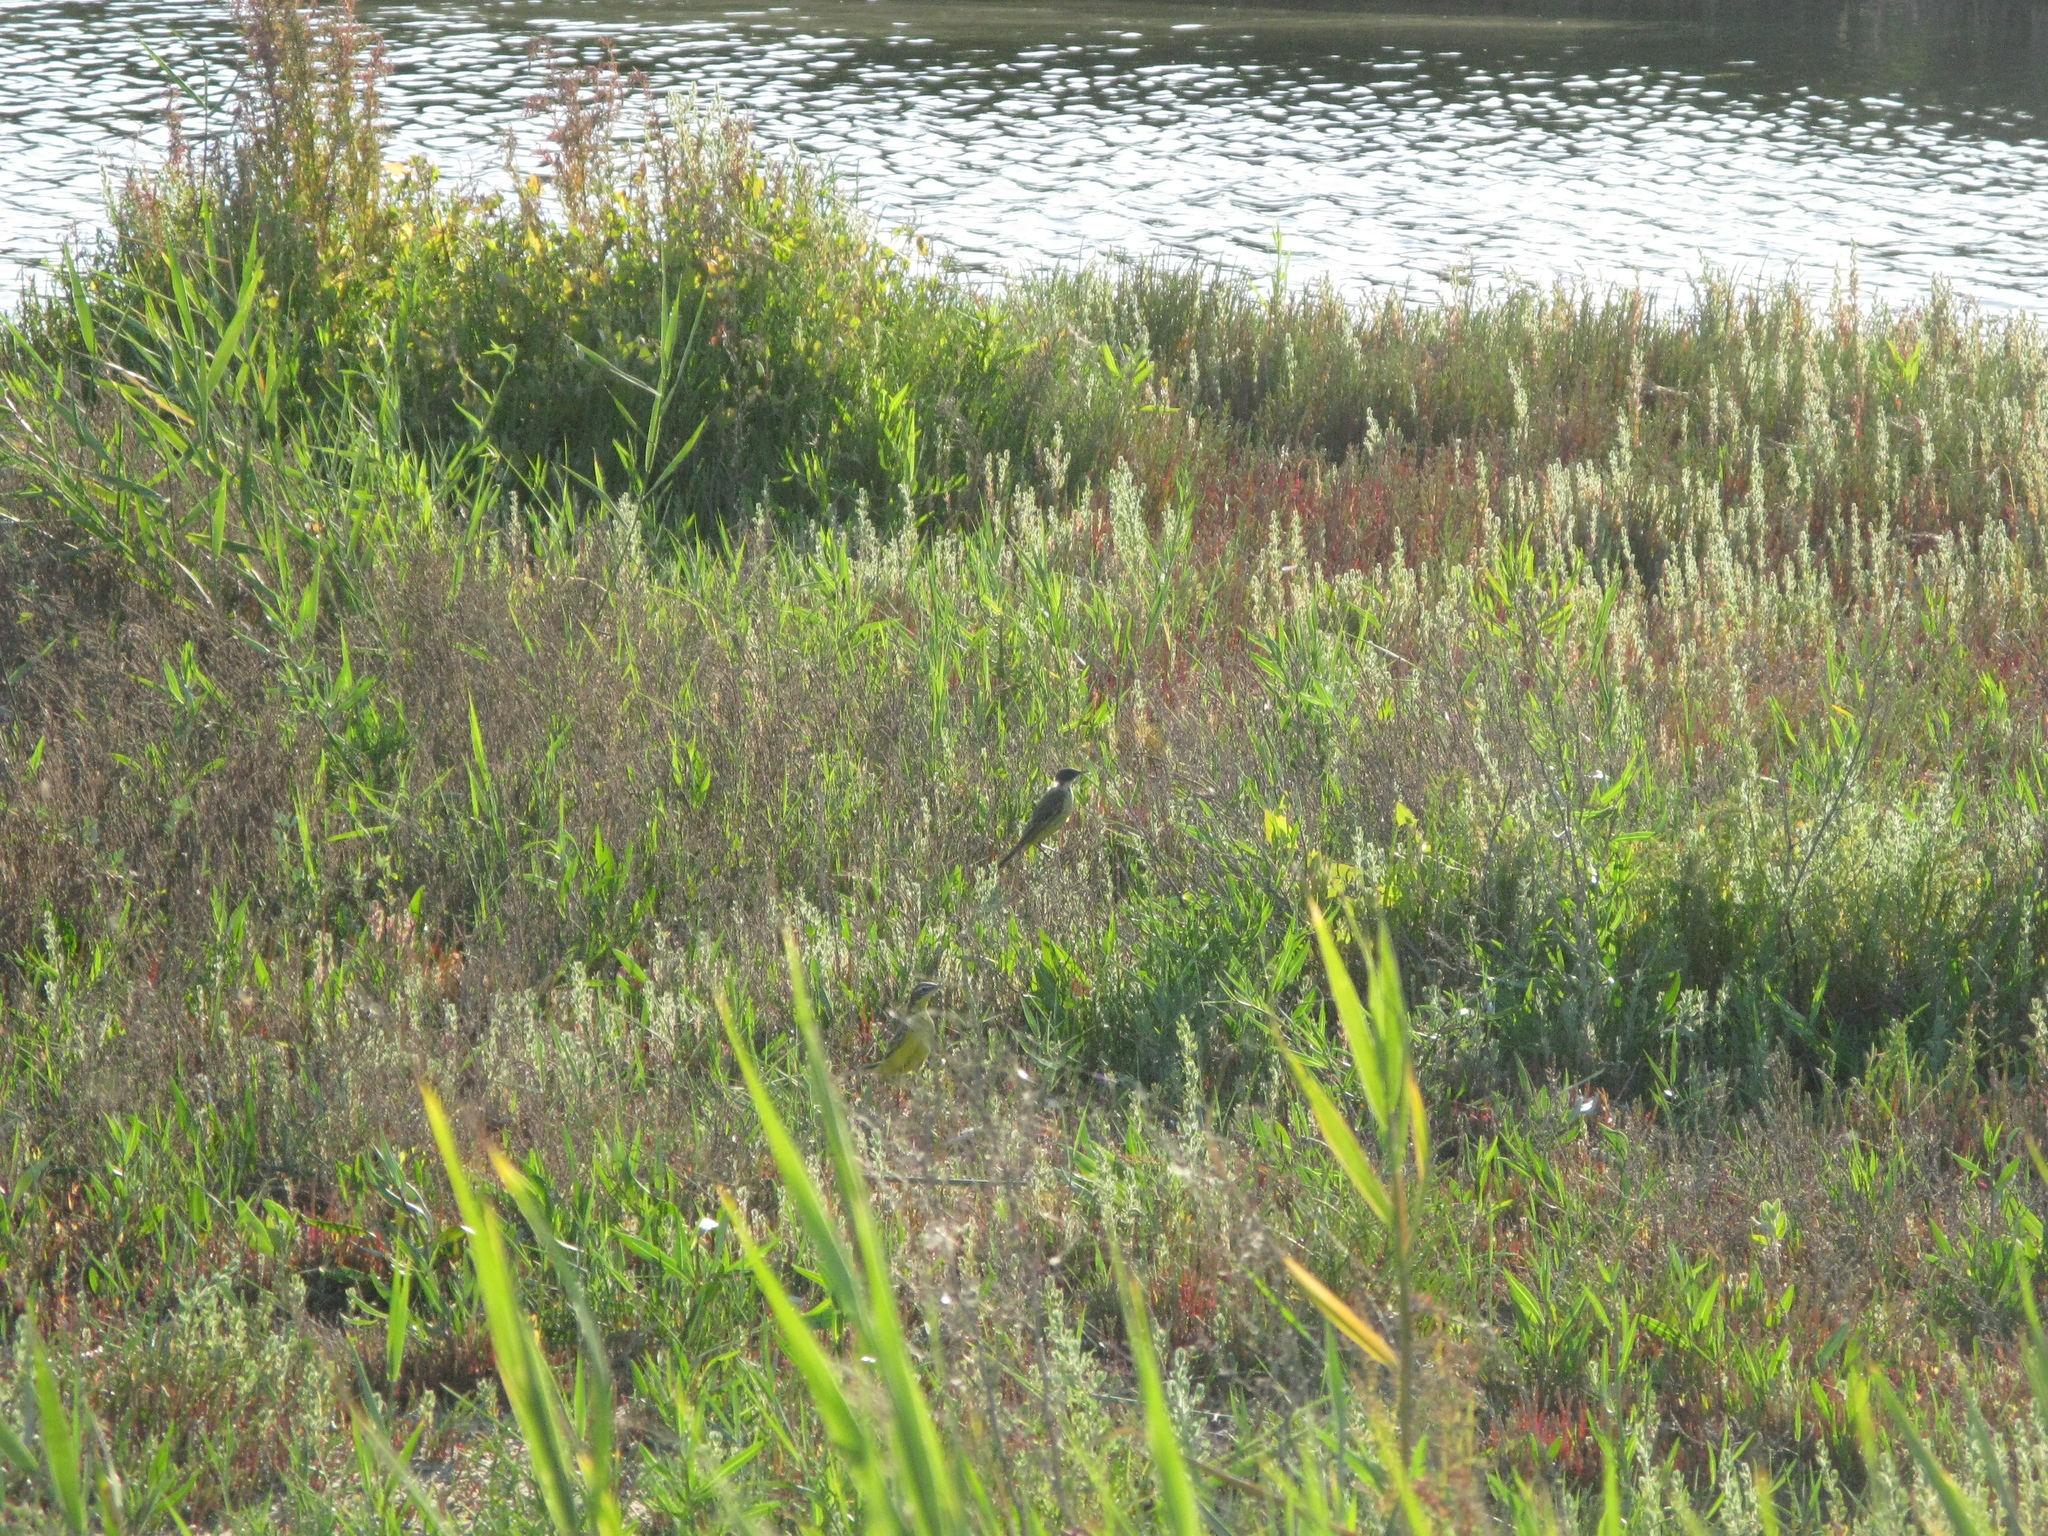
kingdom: Animalia
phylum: Chordata
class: Aves
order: Passeriformes
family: Motacillidae
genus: Motacilla
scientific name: Motacilla flava
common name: Western yellow wagtail
